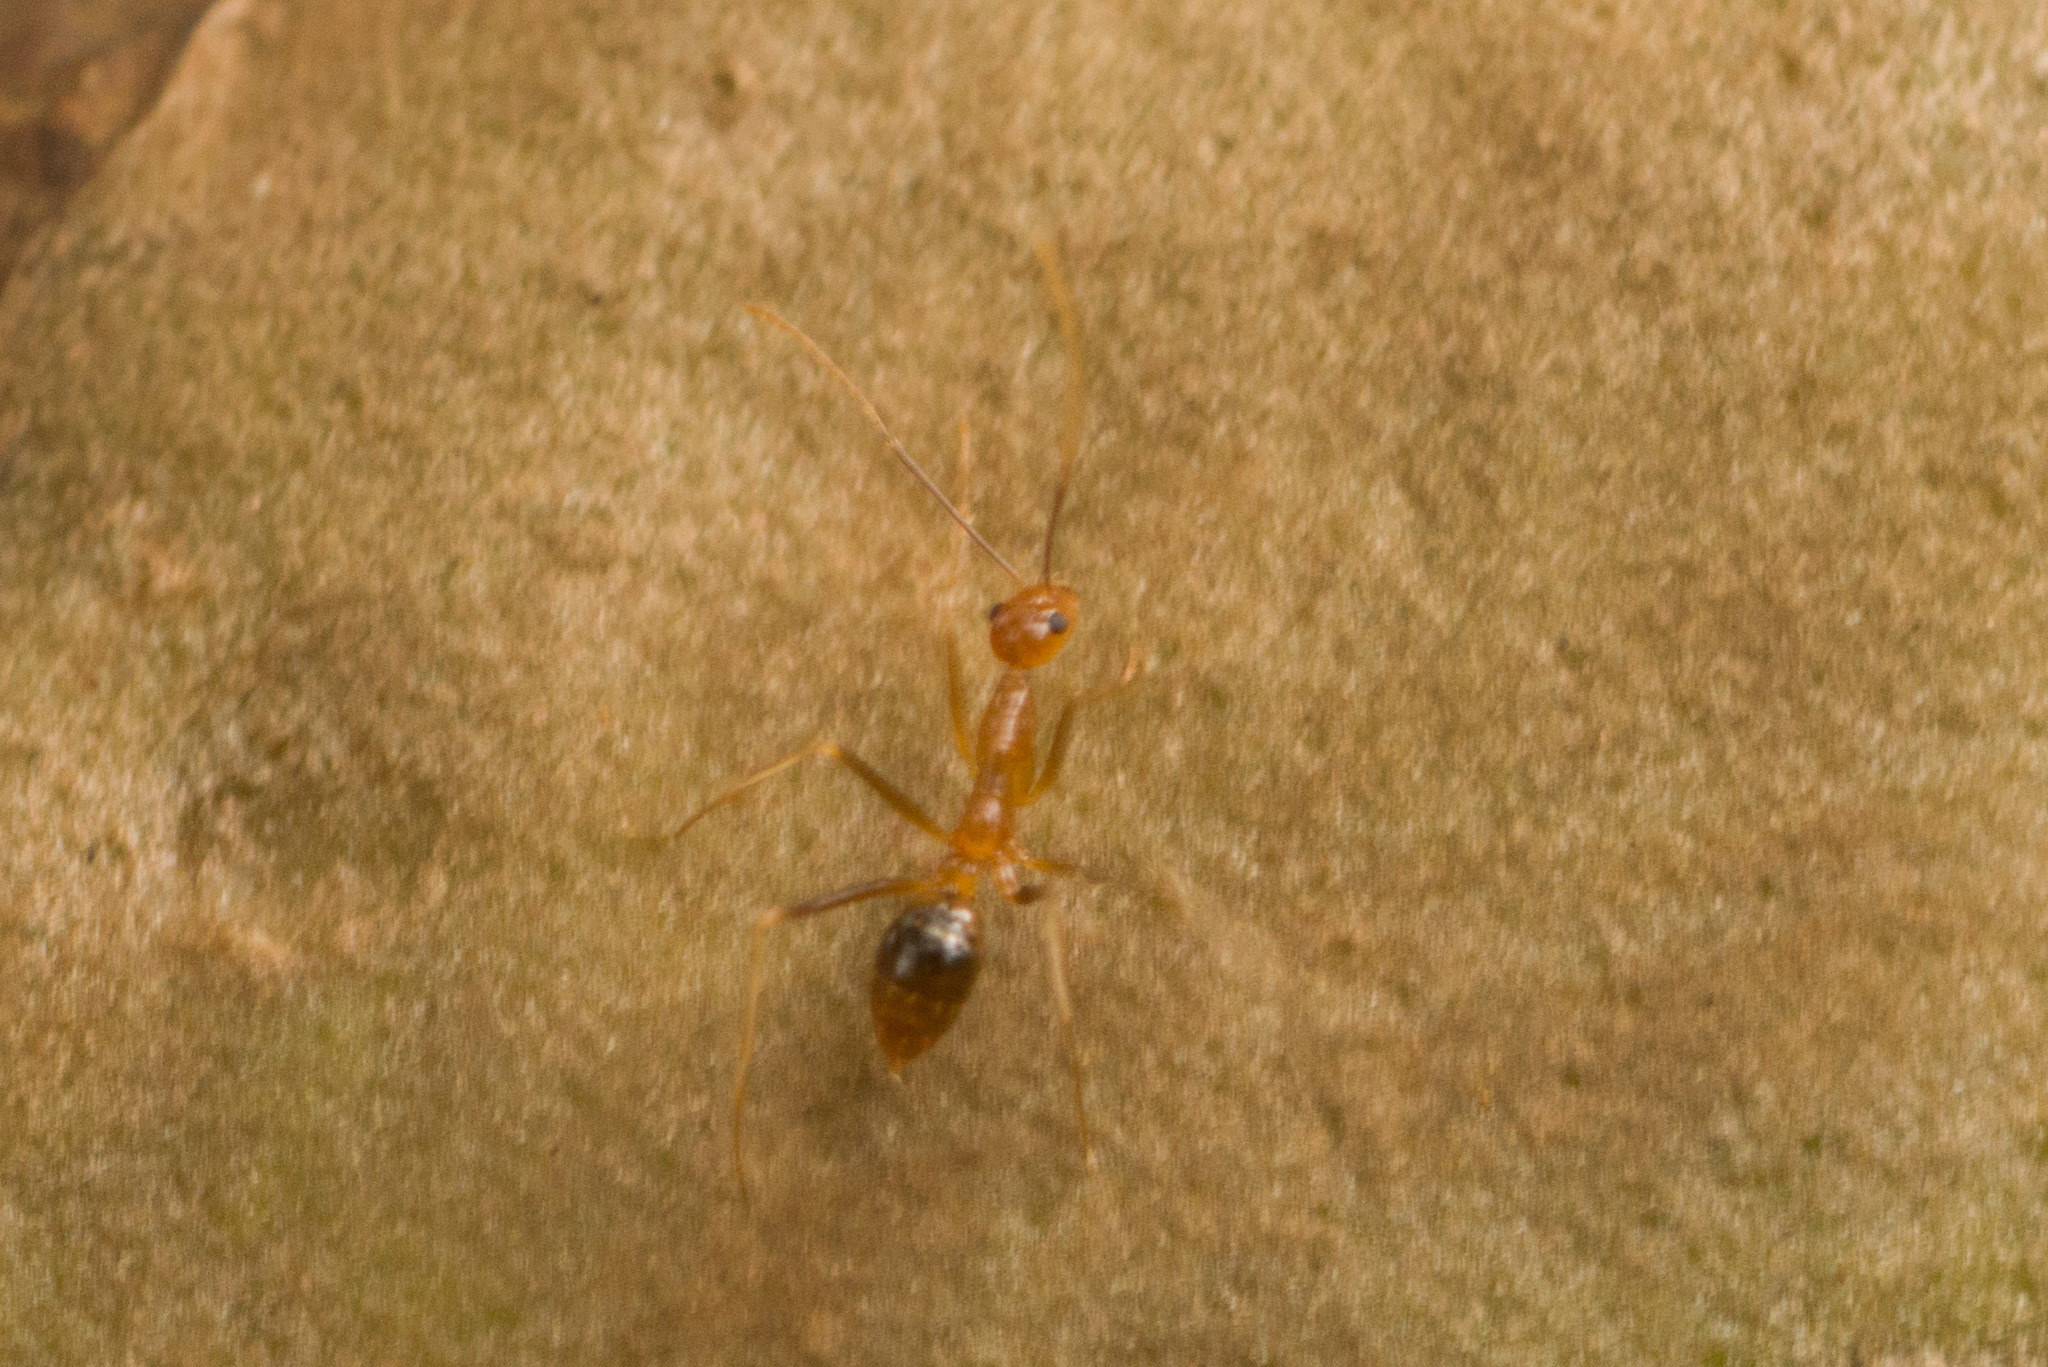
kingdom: Animalia
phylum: Arthropoda
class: Insecta
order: Hymenoptera
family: Formicidae
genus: Anoplolepis
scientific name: Anoplolepis gracilipes
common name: Ant
